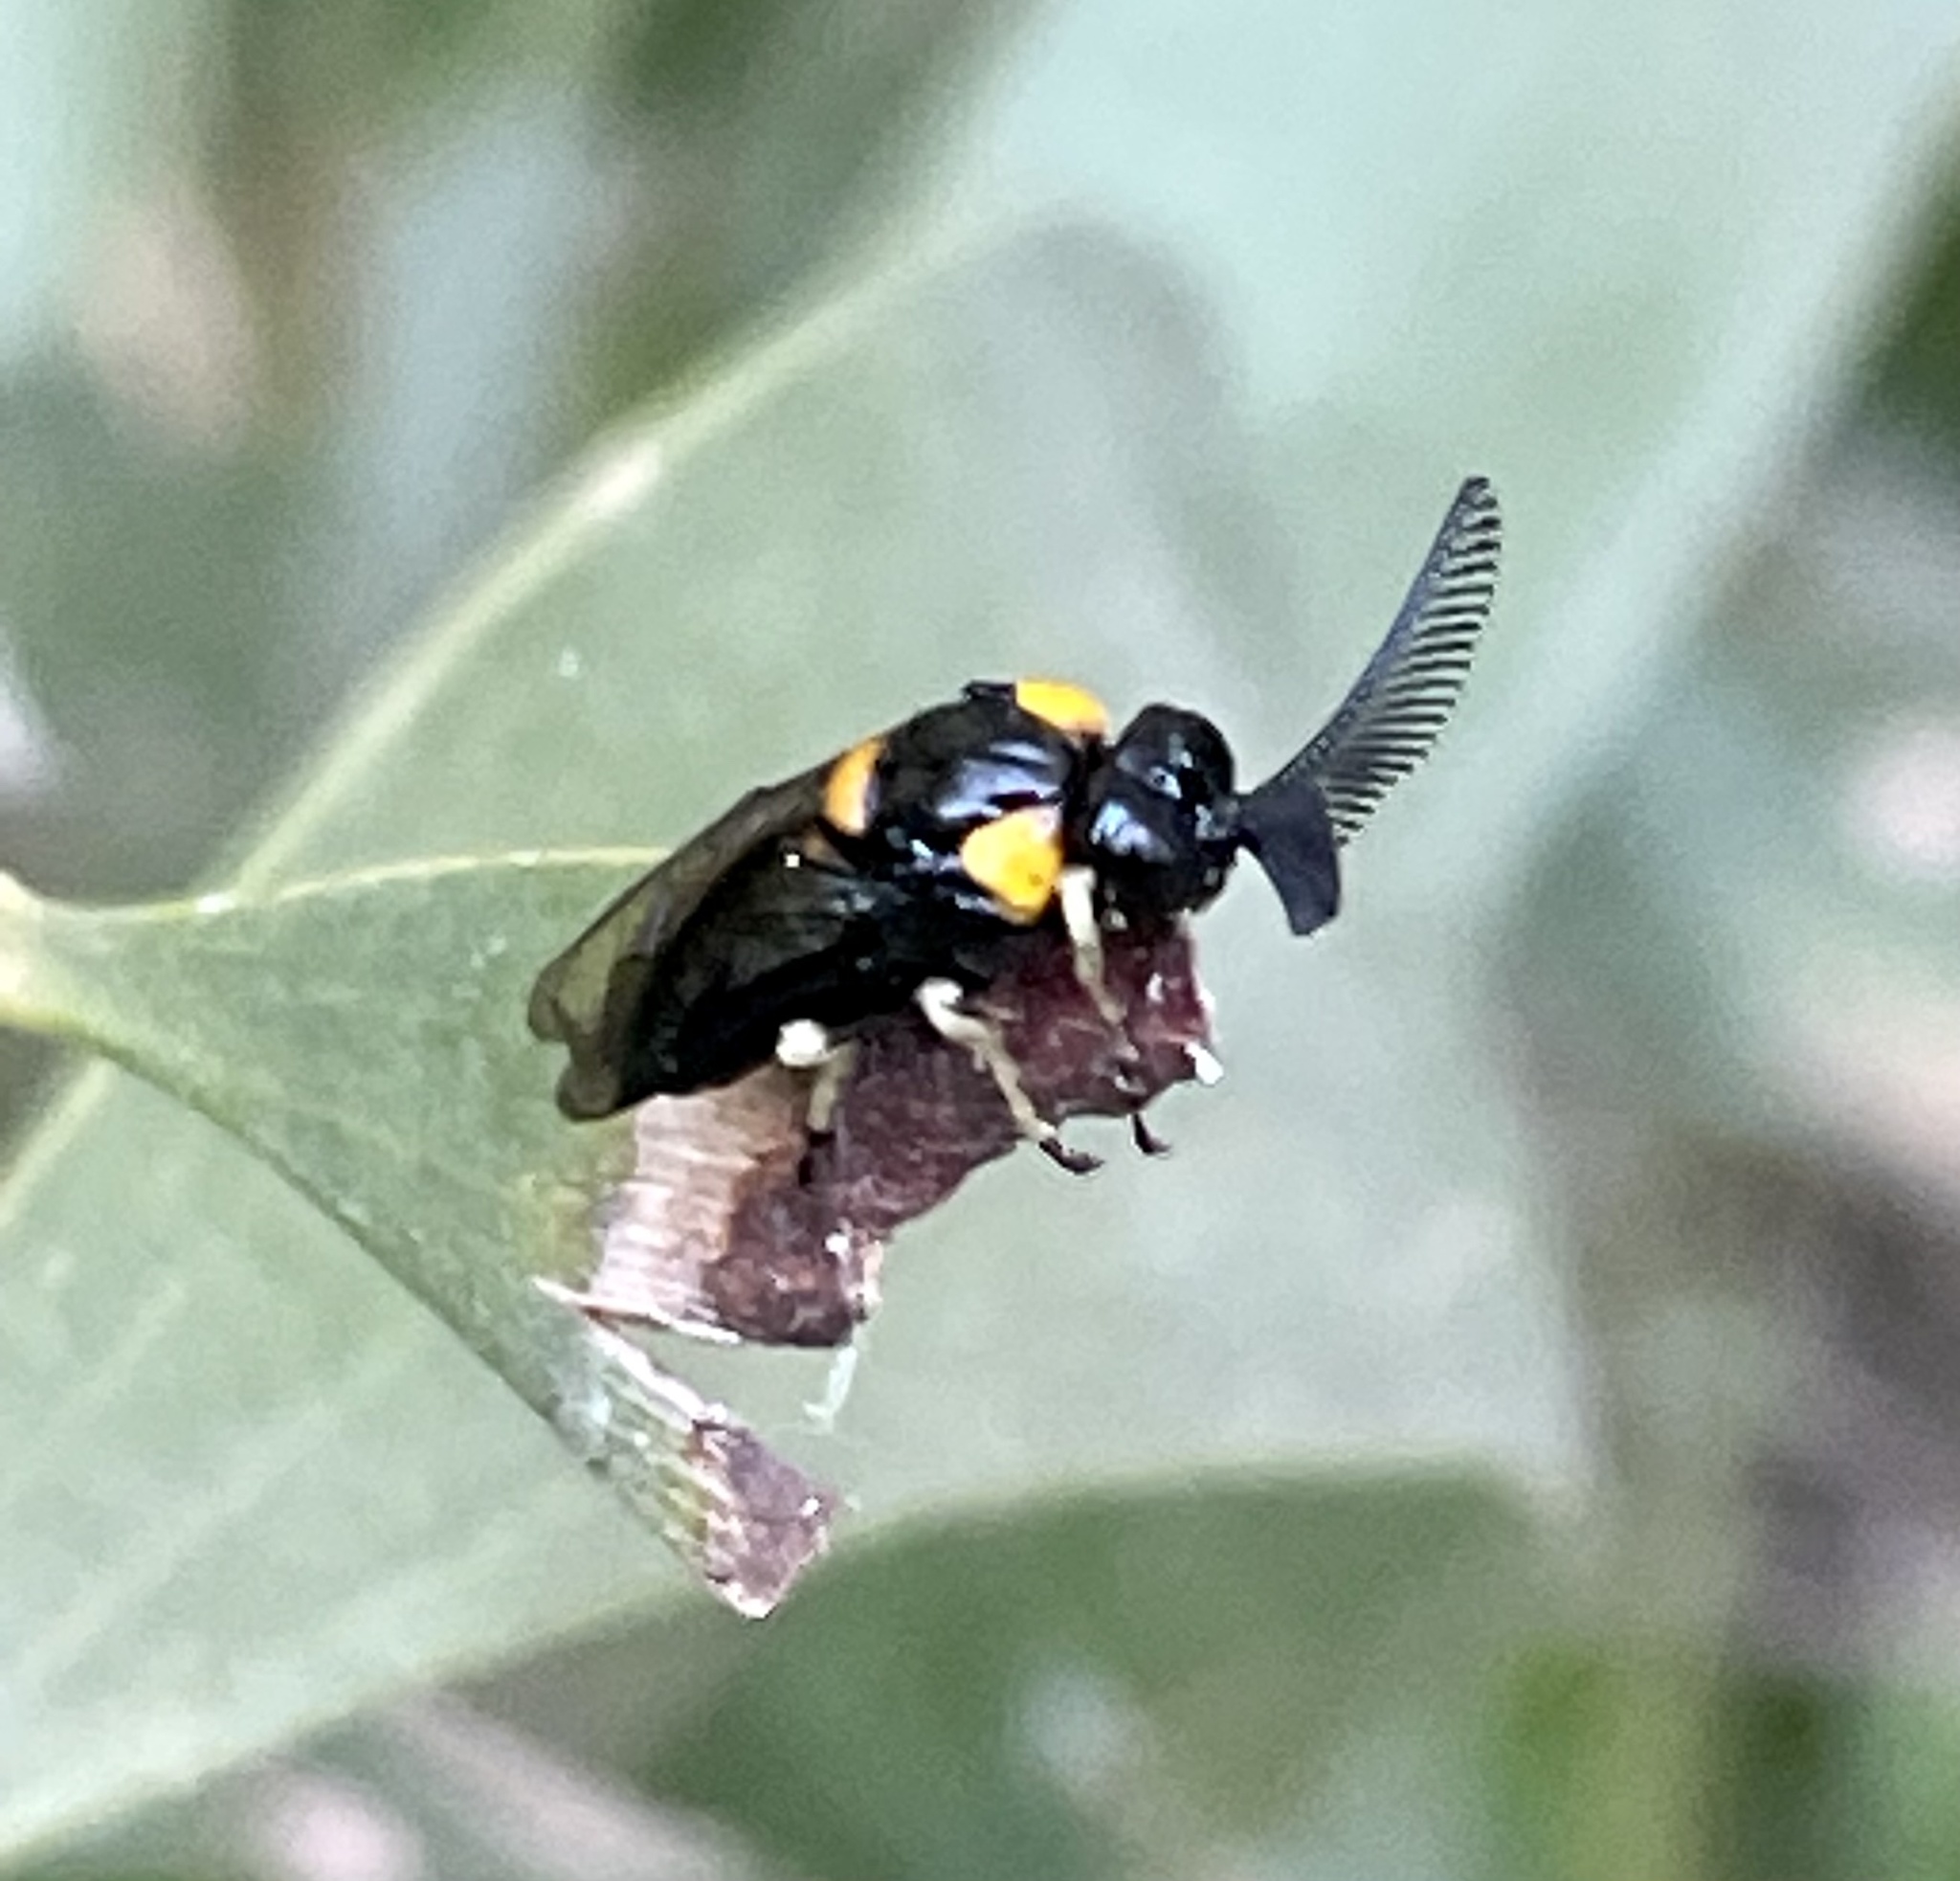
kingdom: Animalia
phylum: Arthropoda
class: Insecta
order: Hymenoptera
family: Pergidae
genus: Lophyrotoma
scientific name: Lophyrotoma
